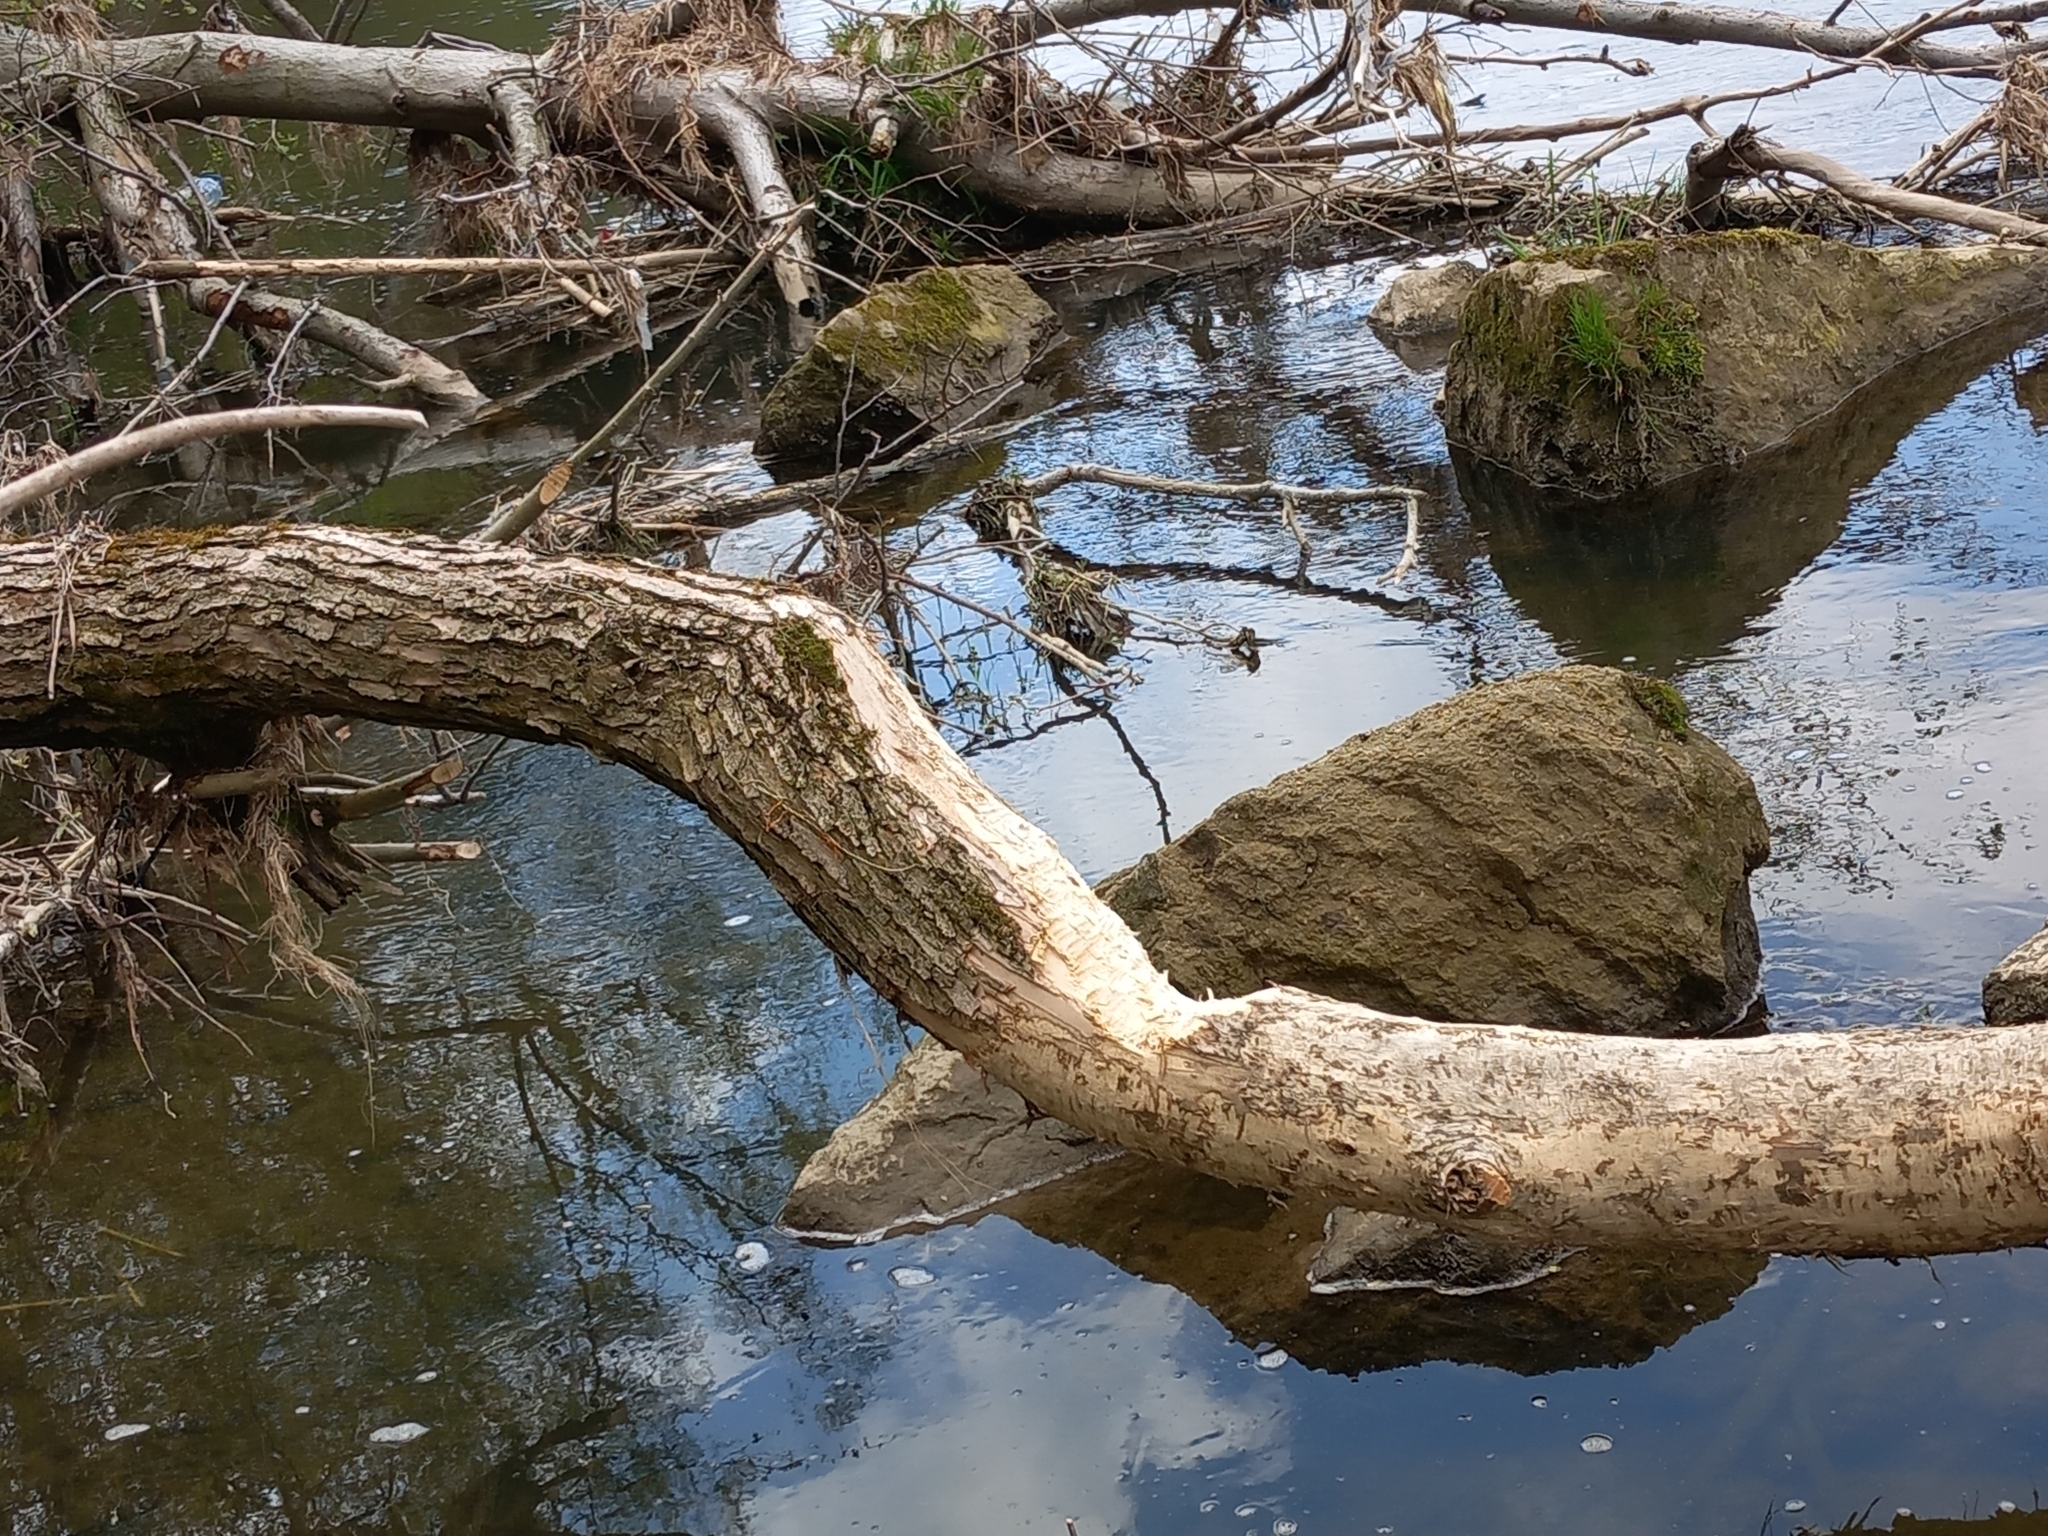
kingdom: Animalia
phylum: Chordata
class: Mammalia
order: Rodentia
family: Castoridae
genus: Castor
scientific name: Castor fiber
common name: Eurasian beaver
